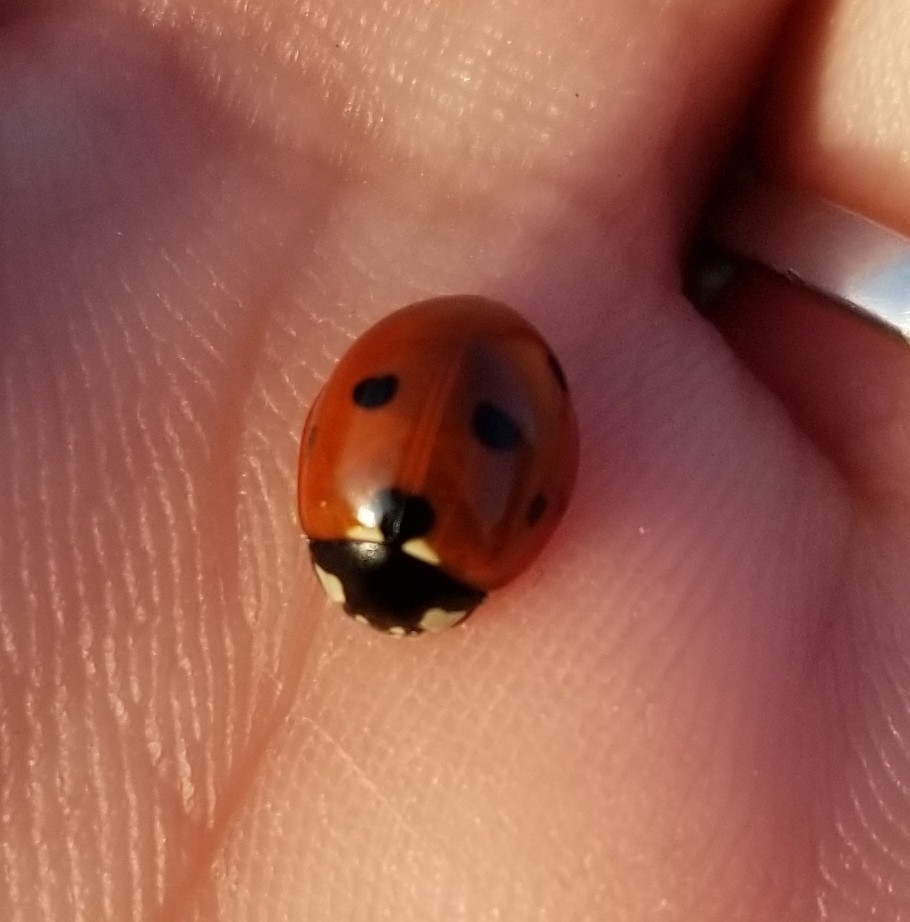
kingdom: Animalia
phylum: Arthropoda
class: Insecta
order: Coleoptera
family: Coccinellidae
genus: Coccinella
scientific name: Coccinella septempunctata
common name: Sevenspotted lady beetle
